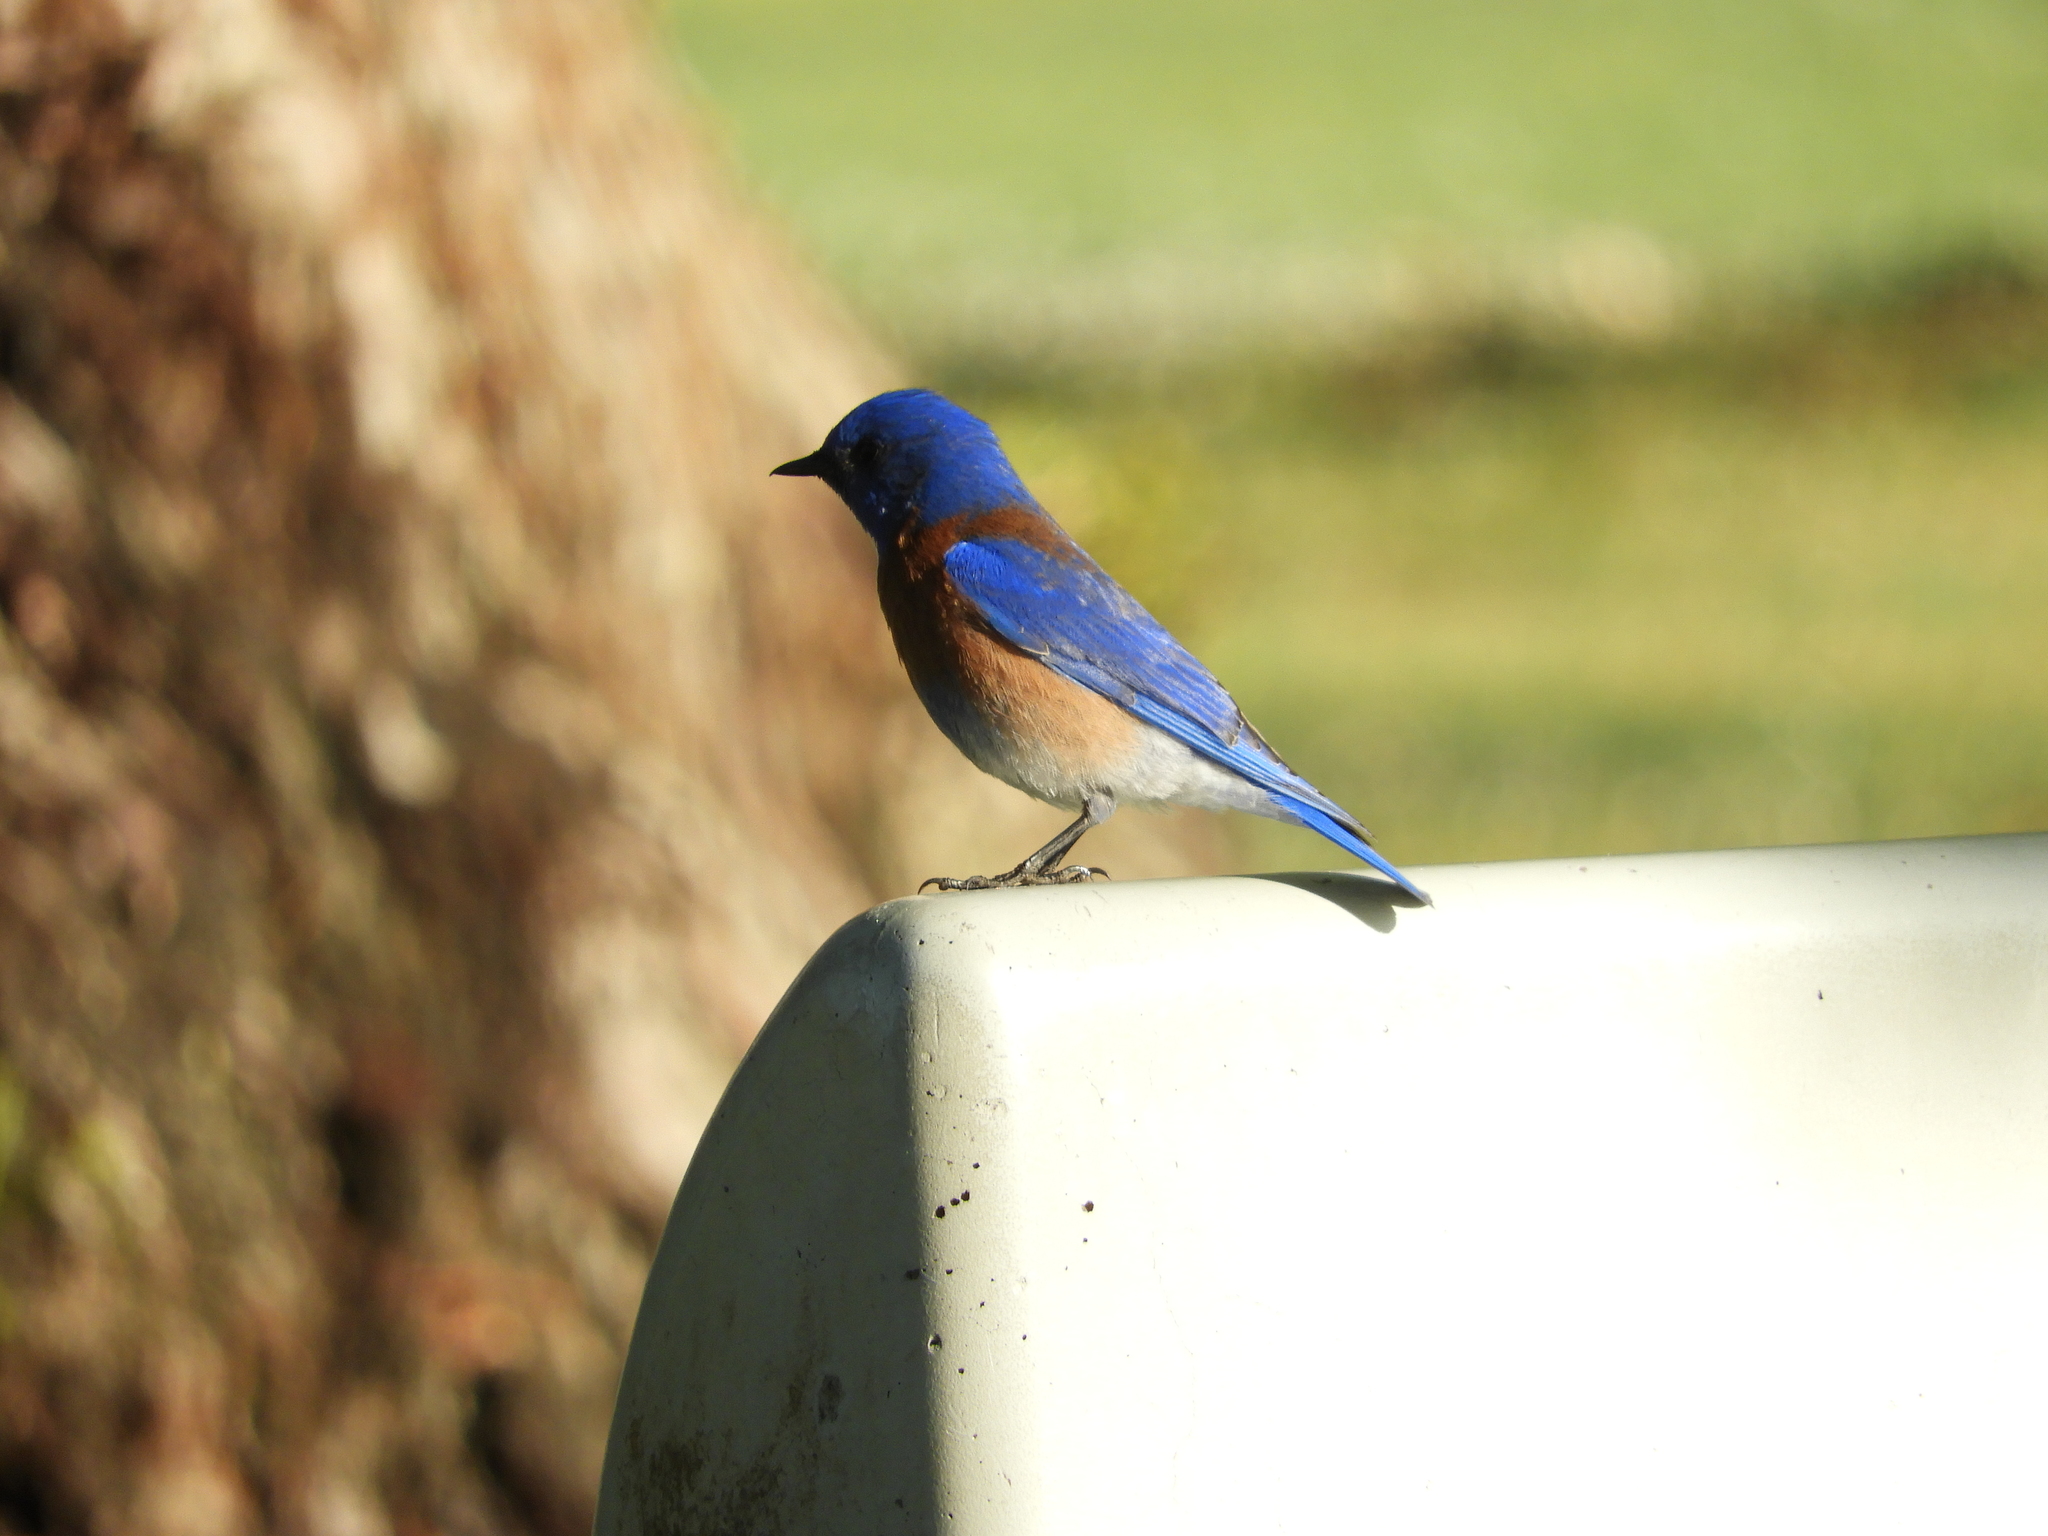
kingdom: Animalia
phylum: Chordata
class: Aves
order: Passeriformes
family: Turdidae
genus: Sialia
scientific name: Sialia mexicana
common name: Western bluebird
